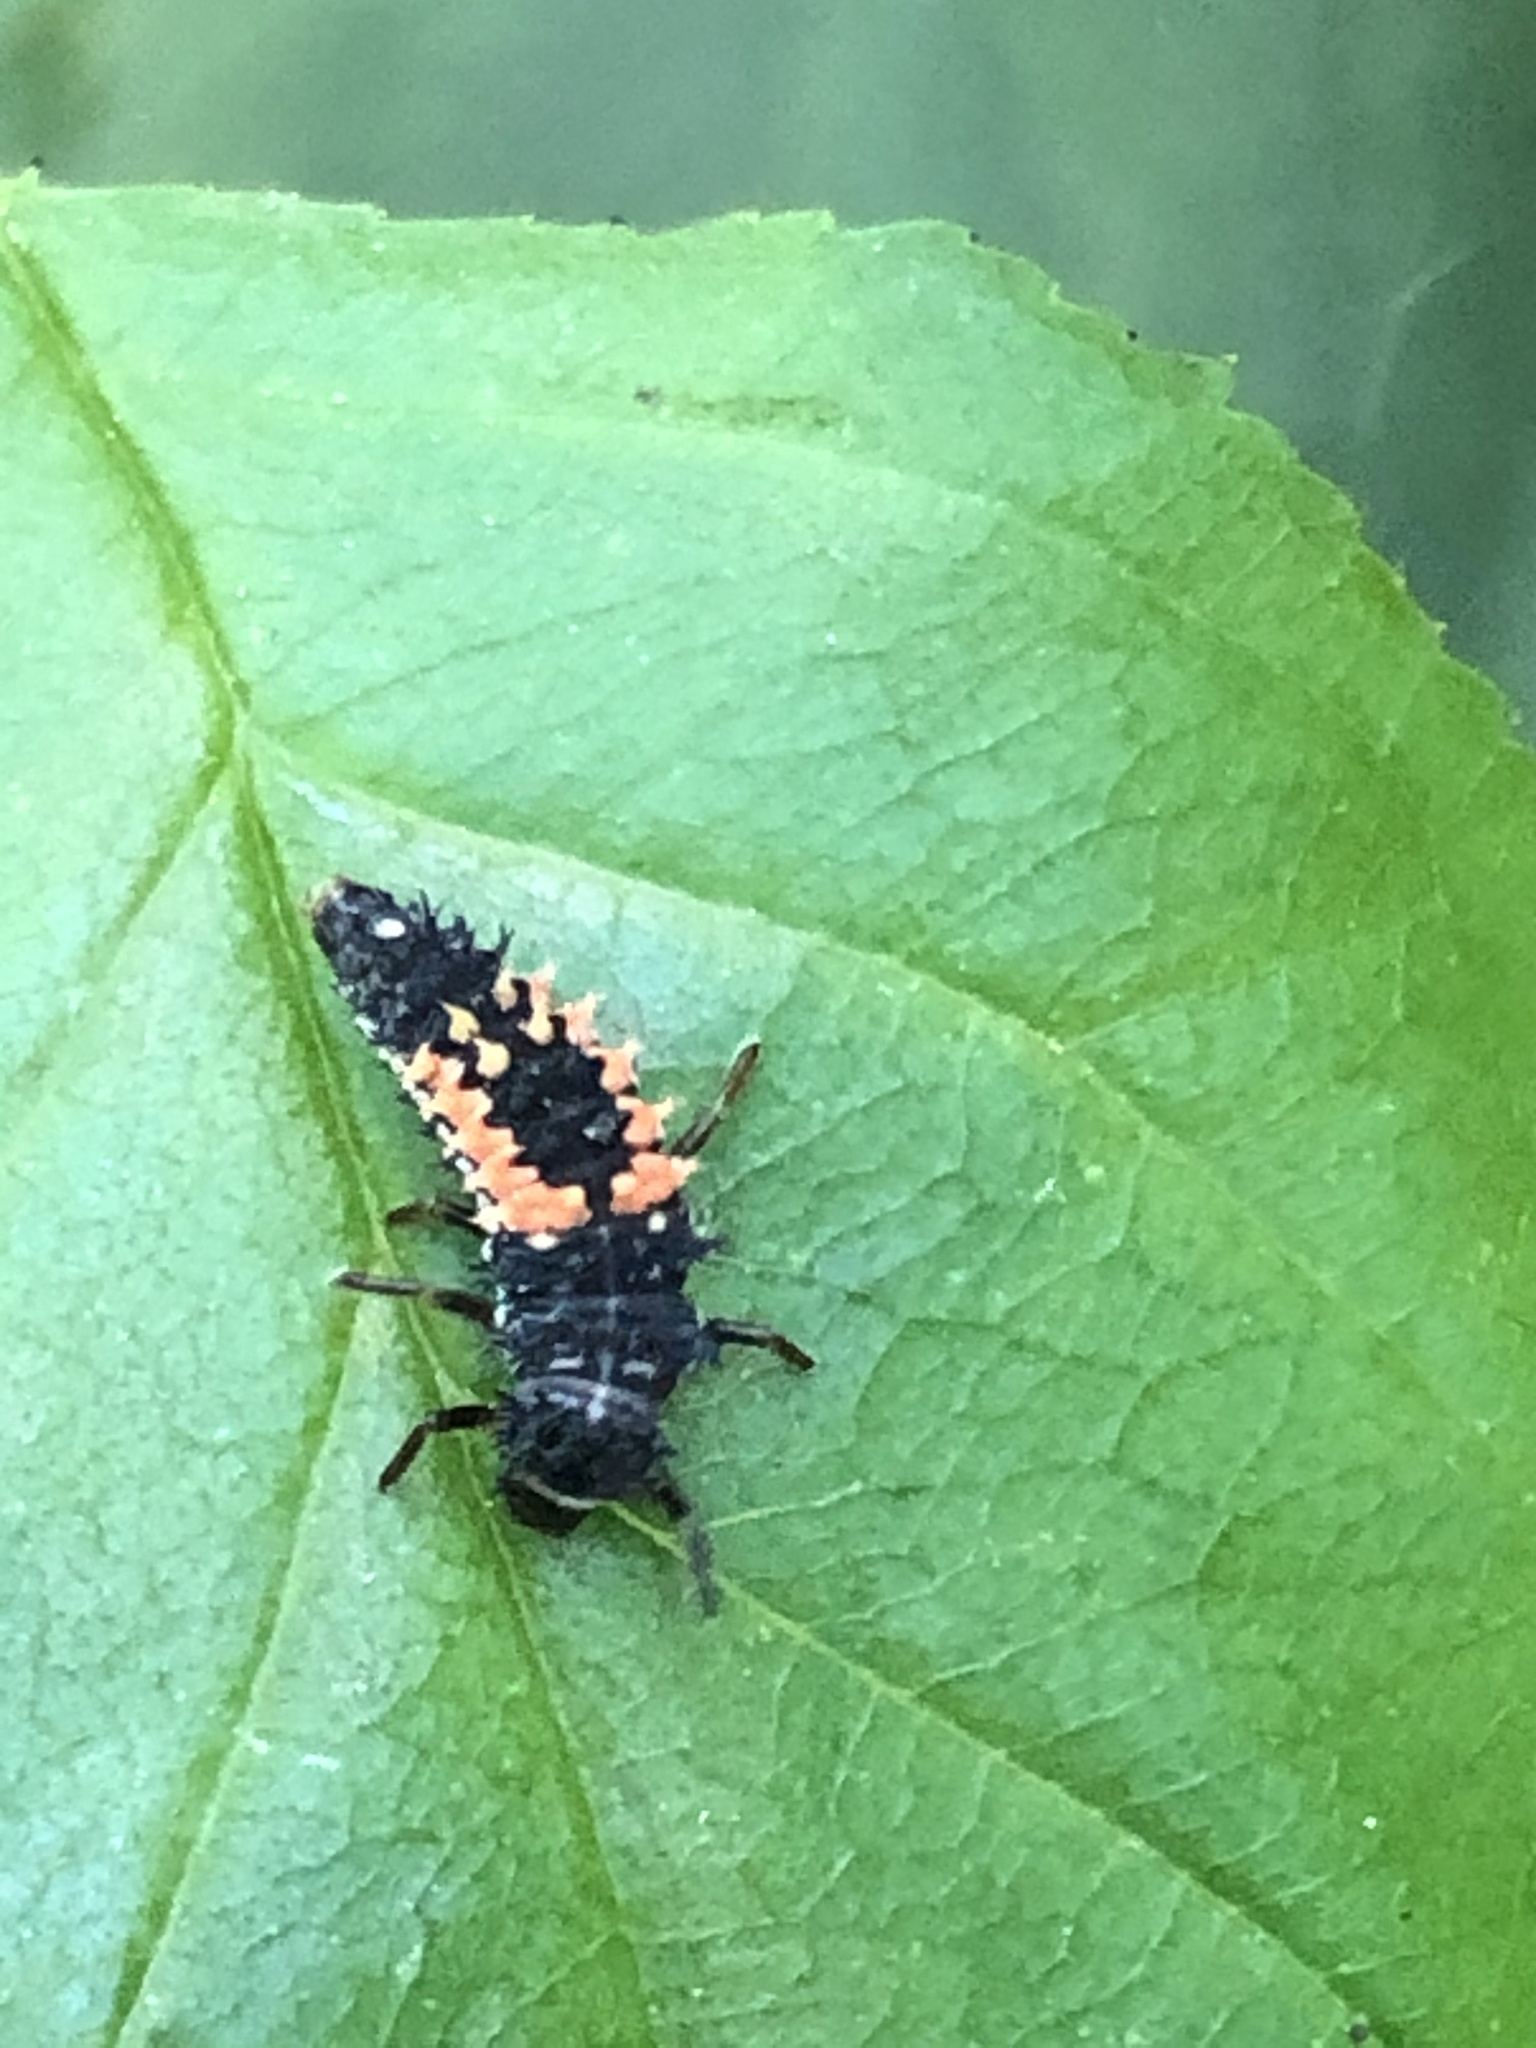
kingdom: Animalia
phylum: Arthropoda
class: Insecta
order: Coleoptera
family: Coccinellidae
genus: Harmonia
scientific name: Harmonia axyridis
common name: Harlequin ladybird
